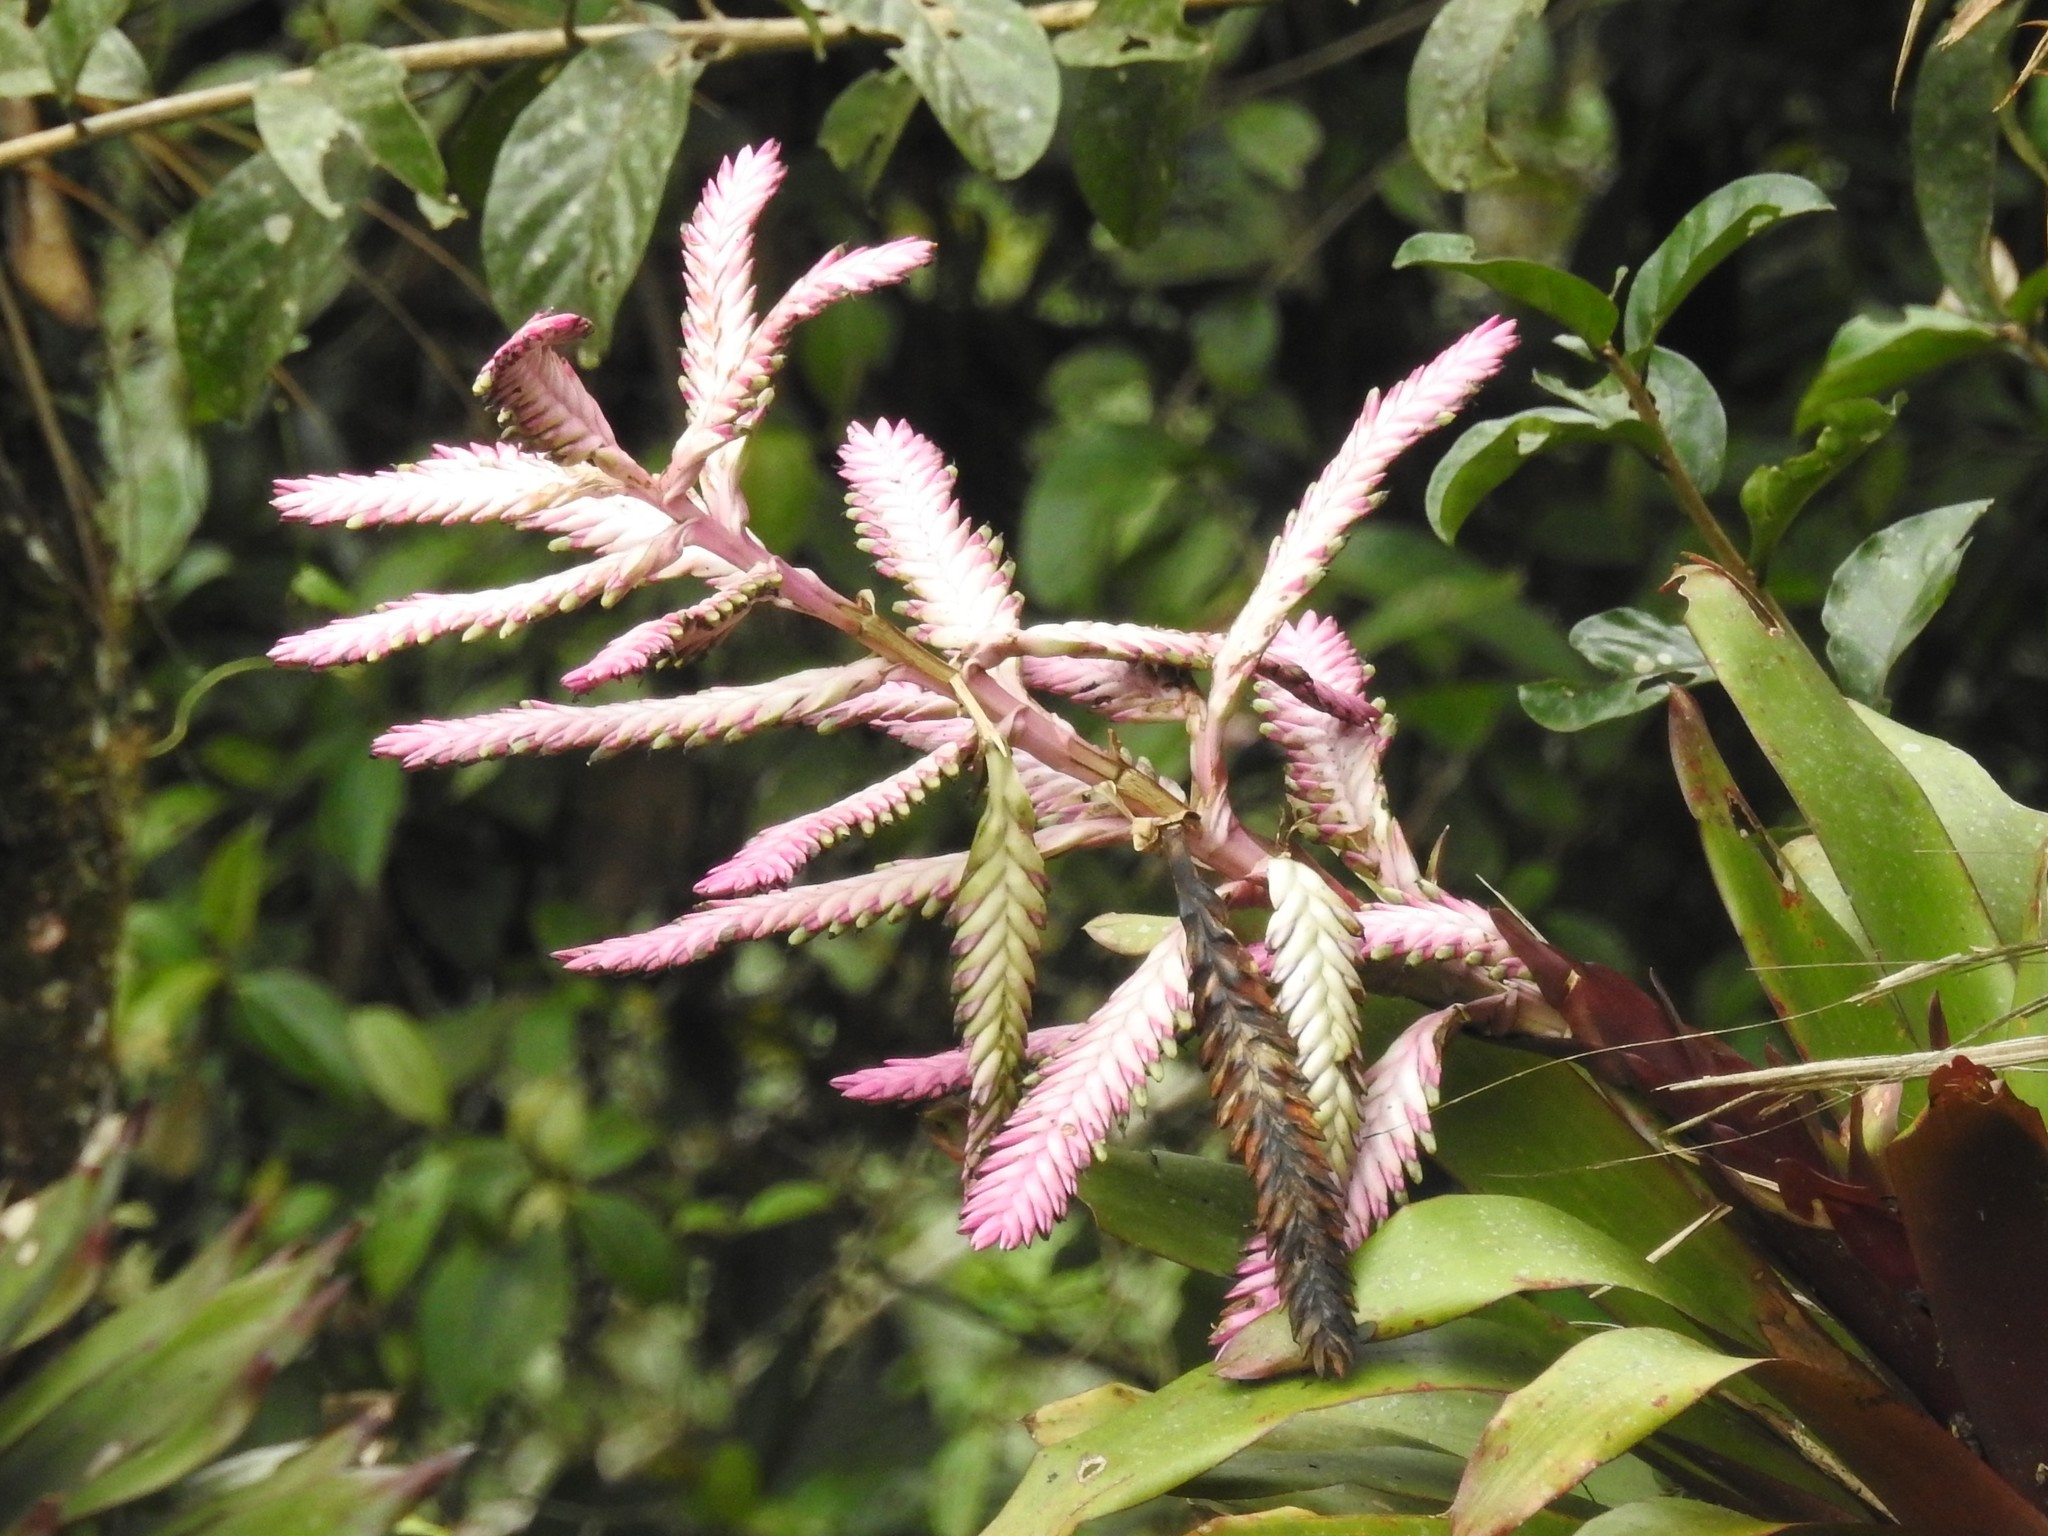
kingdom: Plantae
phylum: Tracheophyta
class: Liliopsida
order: Poales
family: Bromeliaceae
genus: Barfussia
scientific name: Barfussia platyrhachis
